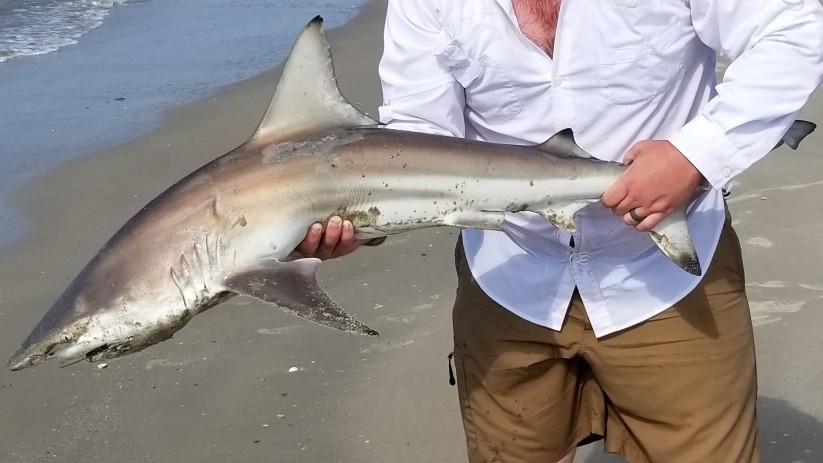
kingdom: Animalia
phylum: Chordata
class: Elasmobranchii
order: Carcharhiniformes
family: Carcharhinidae
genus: Carcharhinus
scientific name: Carcharhinus limbatus
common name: Blacktip shark
